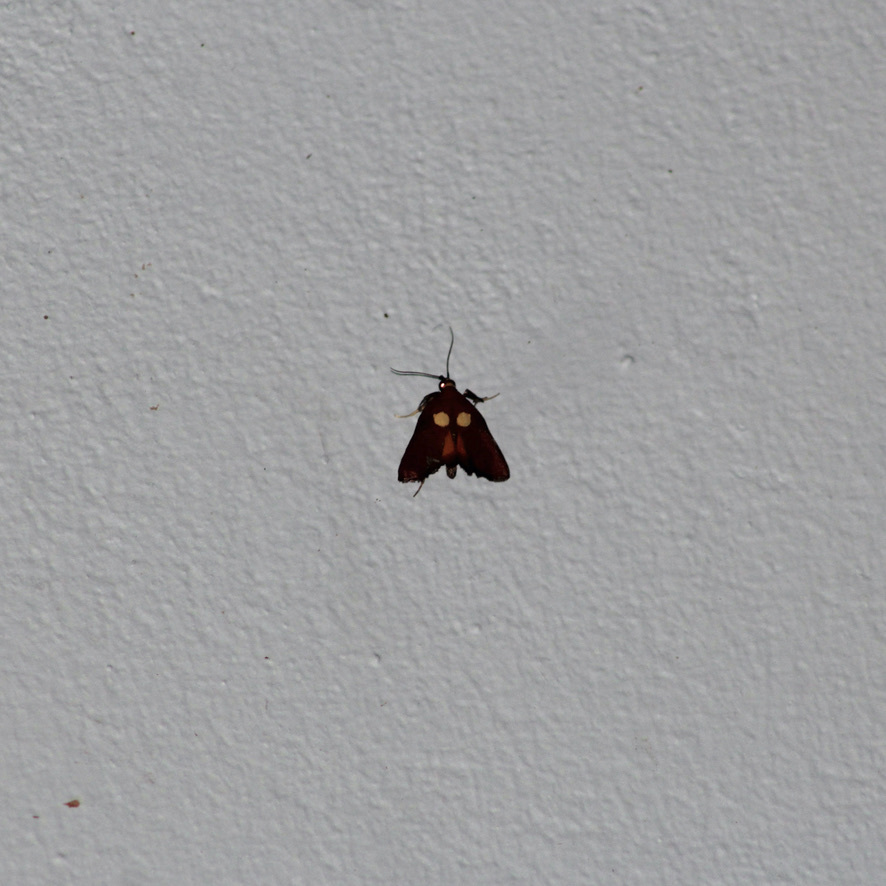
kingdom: Animalia
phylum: Arthropoda
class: Insecta
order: Lepidoptera
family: Pyralidae
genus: Semnia
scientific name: Semnia auritalis
